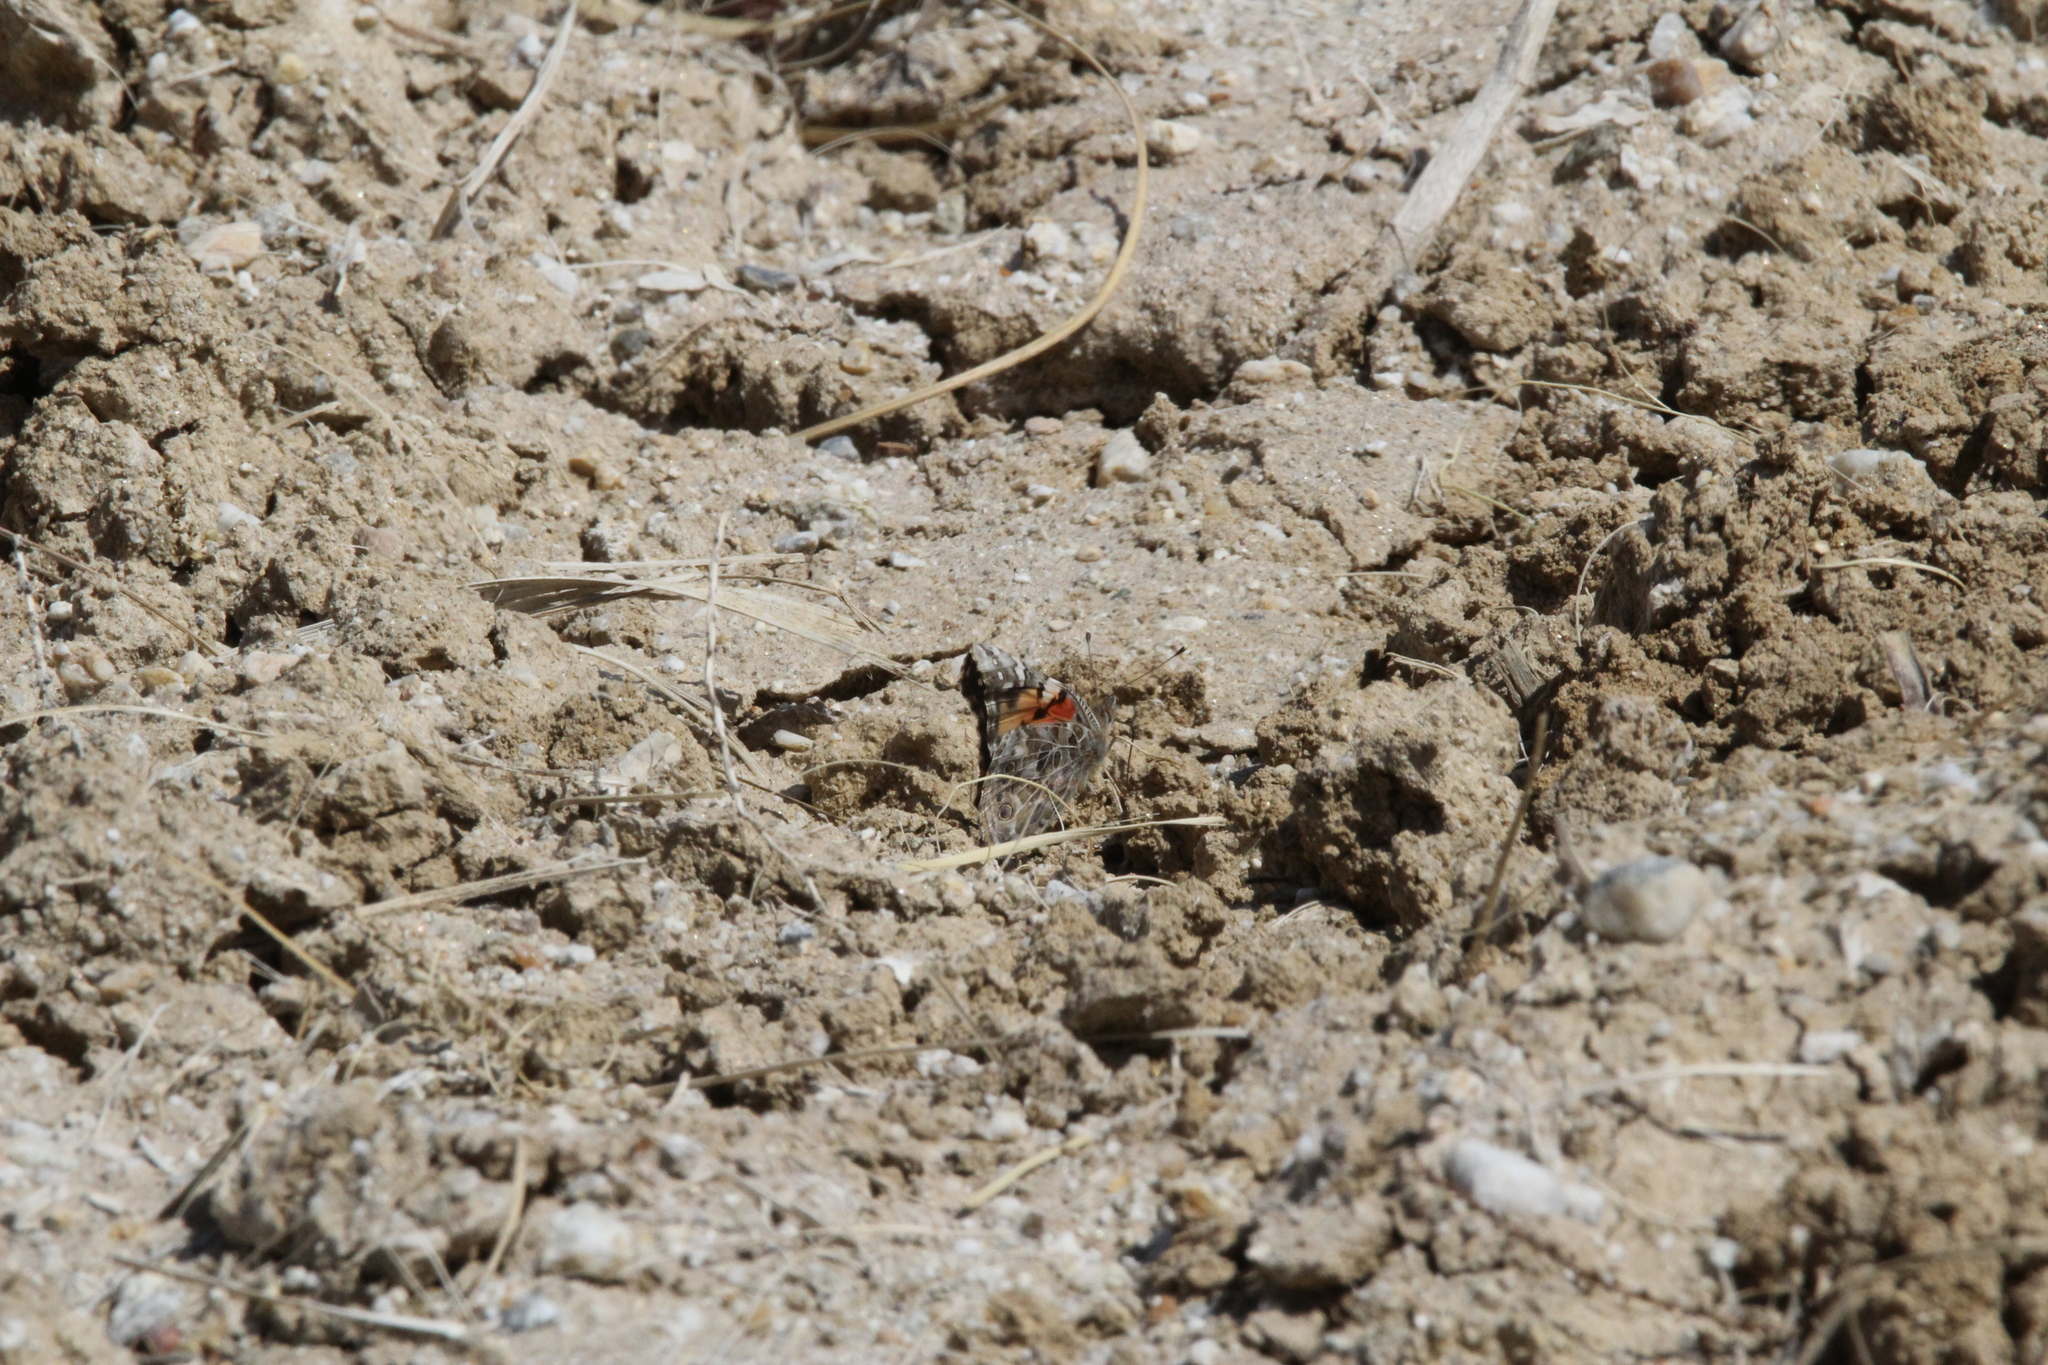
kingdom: Animalia
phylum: Arthropoda
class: Insecta
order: Lepidoptera
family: Nymphalidae
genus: Vanessa
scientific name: Vanessa cardui
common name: Painted lady
